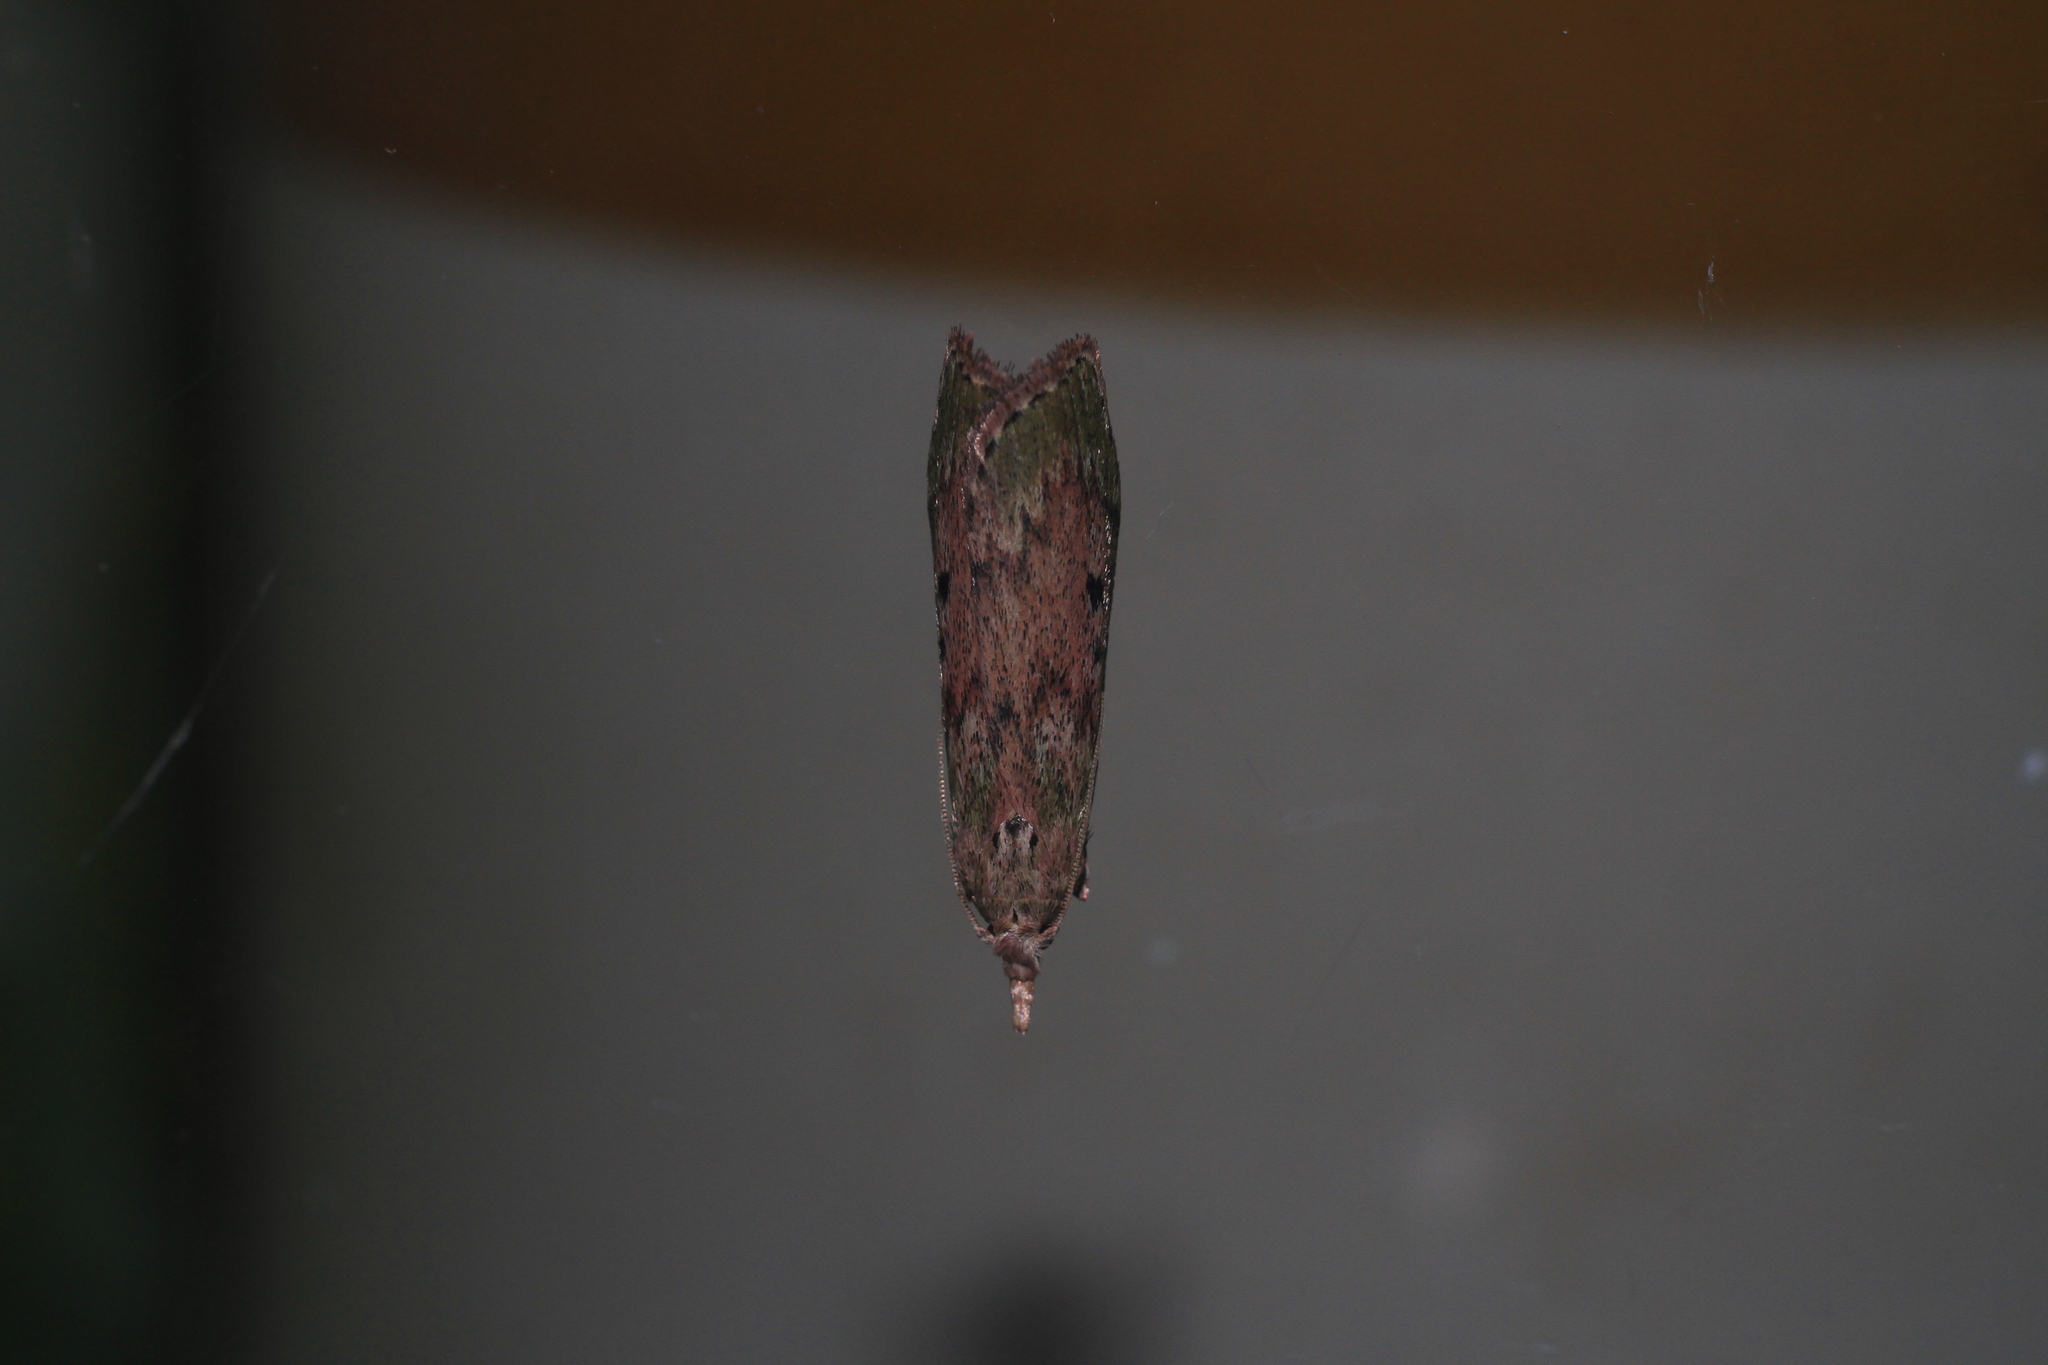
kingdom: Animalia
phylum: Arthropoda
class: Insecta
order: Lepidoptera
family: Pyralidae
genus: Aphomia
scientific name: Aphomia sociella
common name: Bee moth
